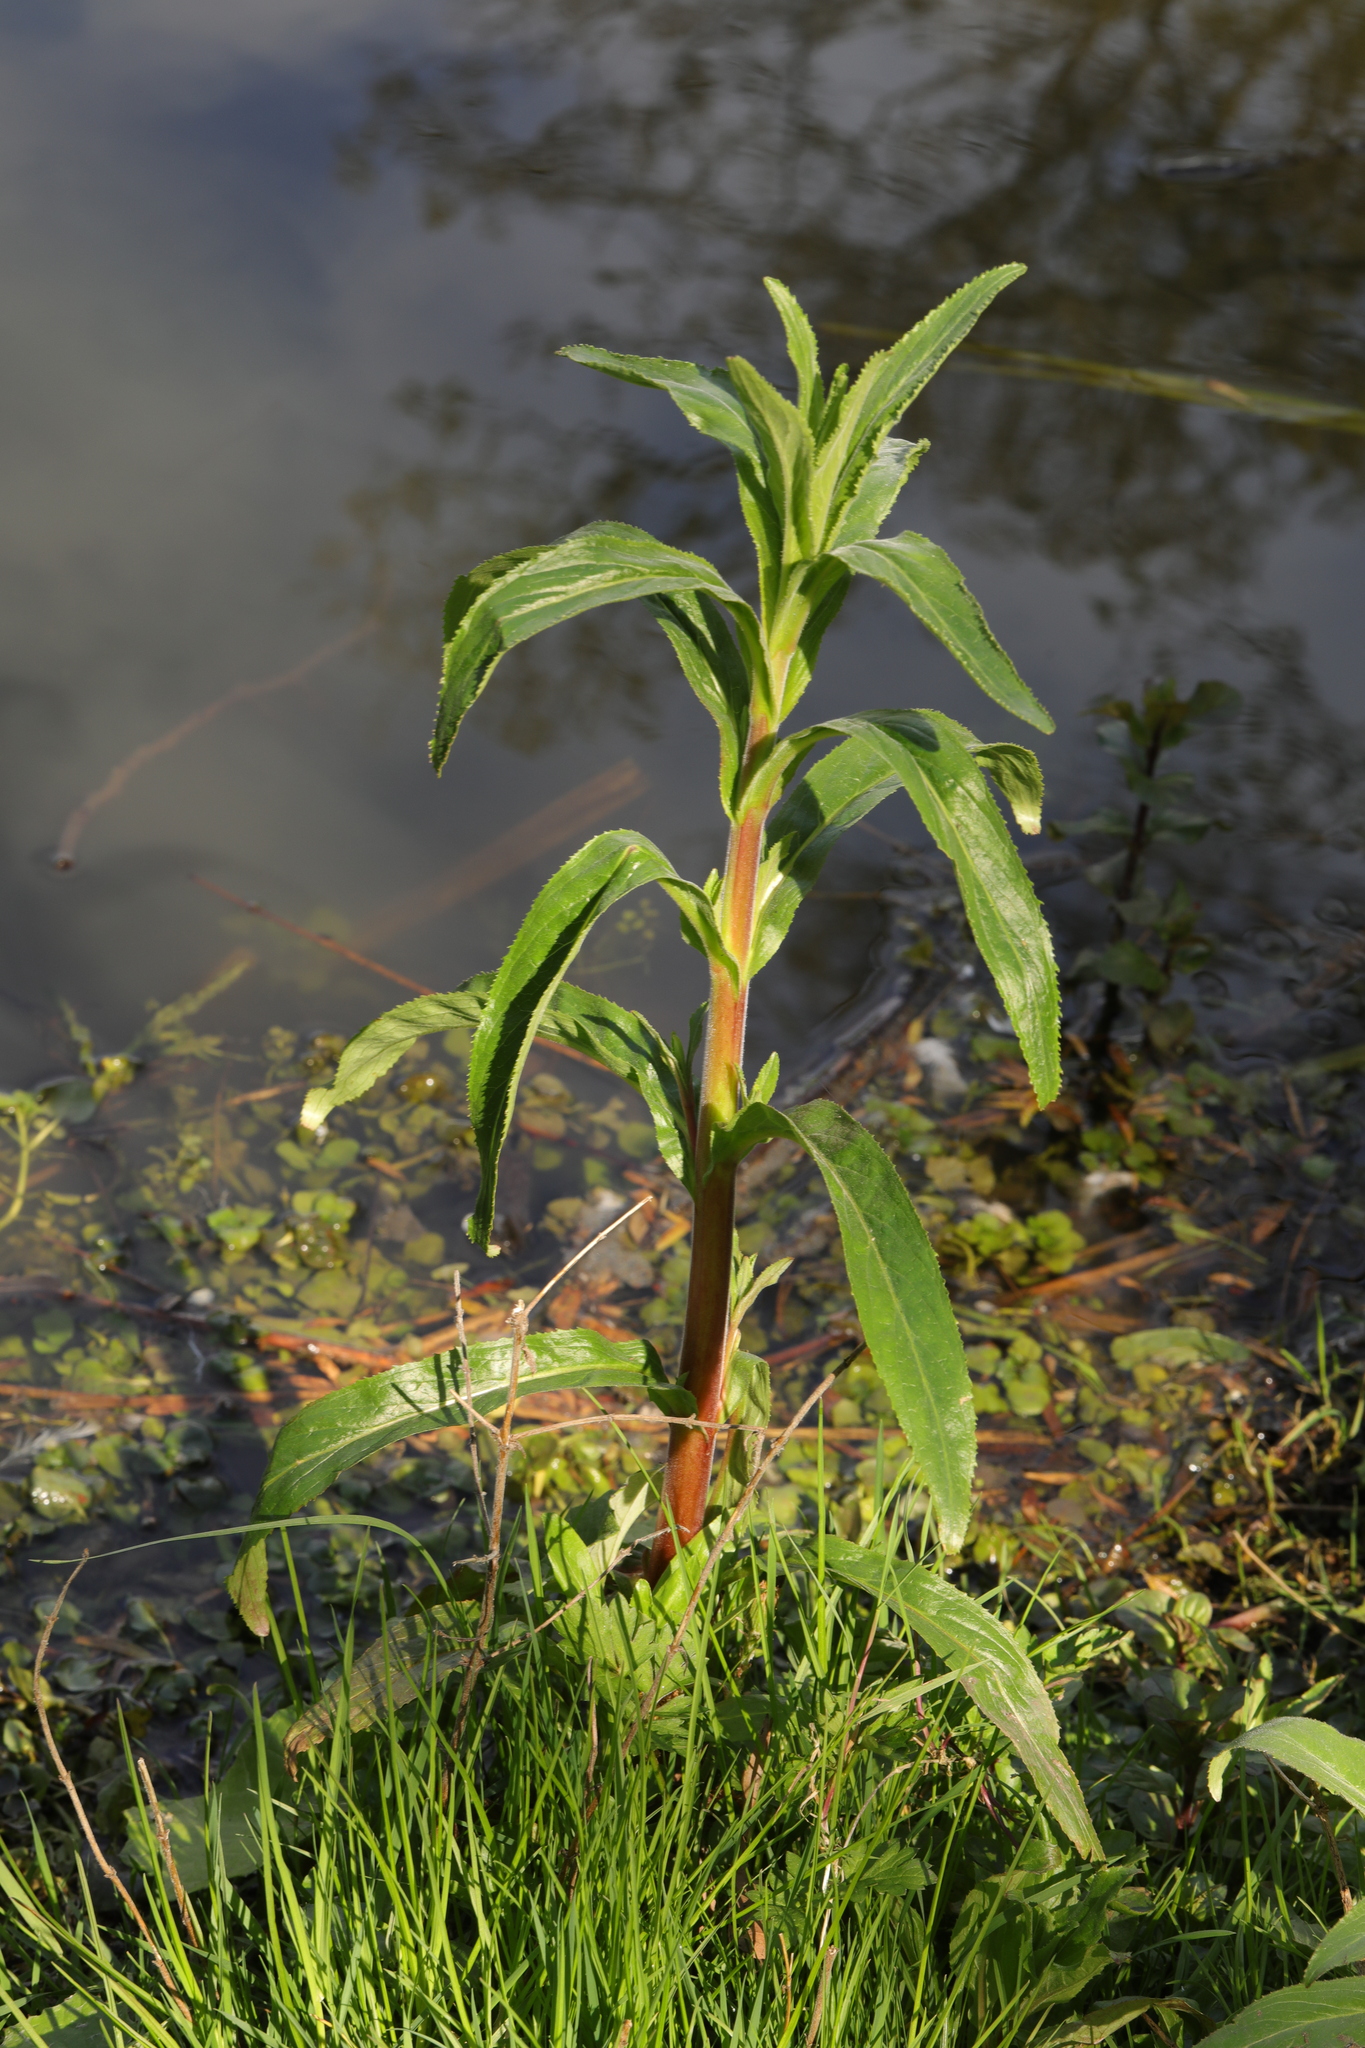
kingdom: Plantae
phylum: Tracheophyta
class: Magnoliopsida
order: Myrtales
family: Onagraceae
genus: Epilobium
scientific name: Epilobium hirsutum
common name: Great willowherb
